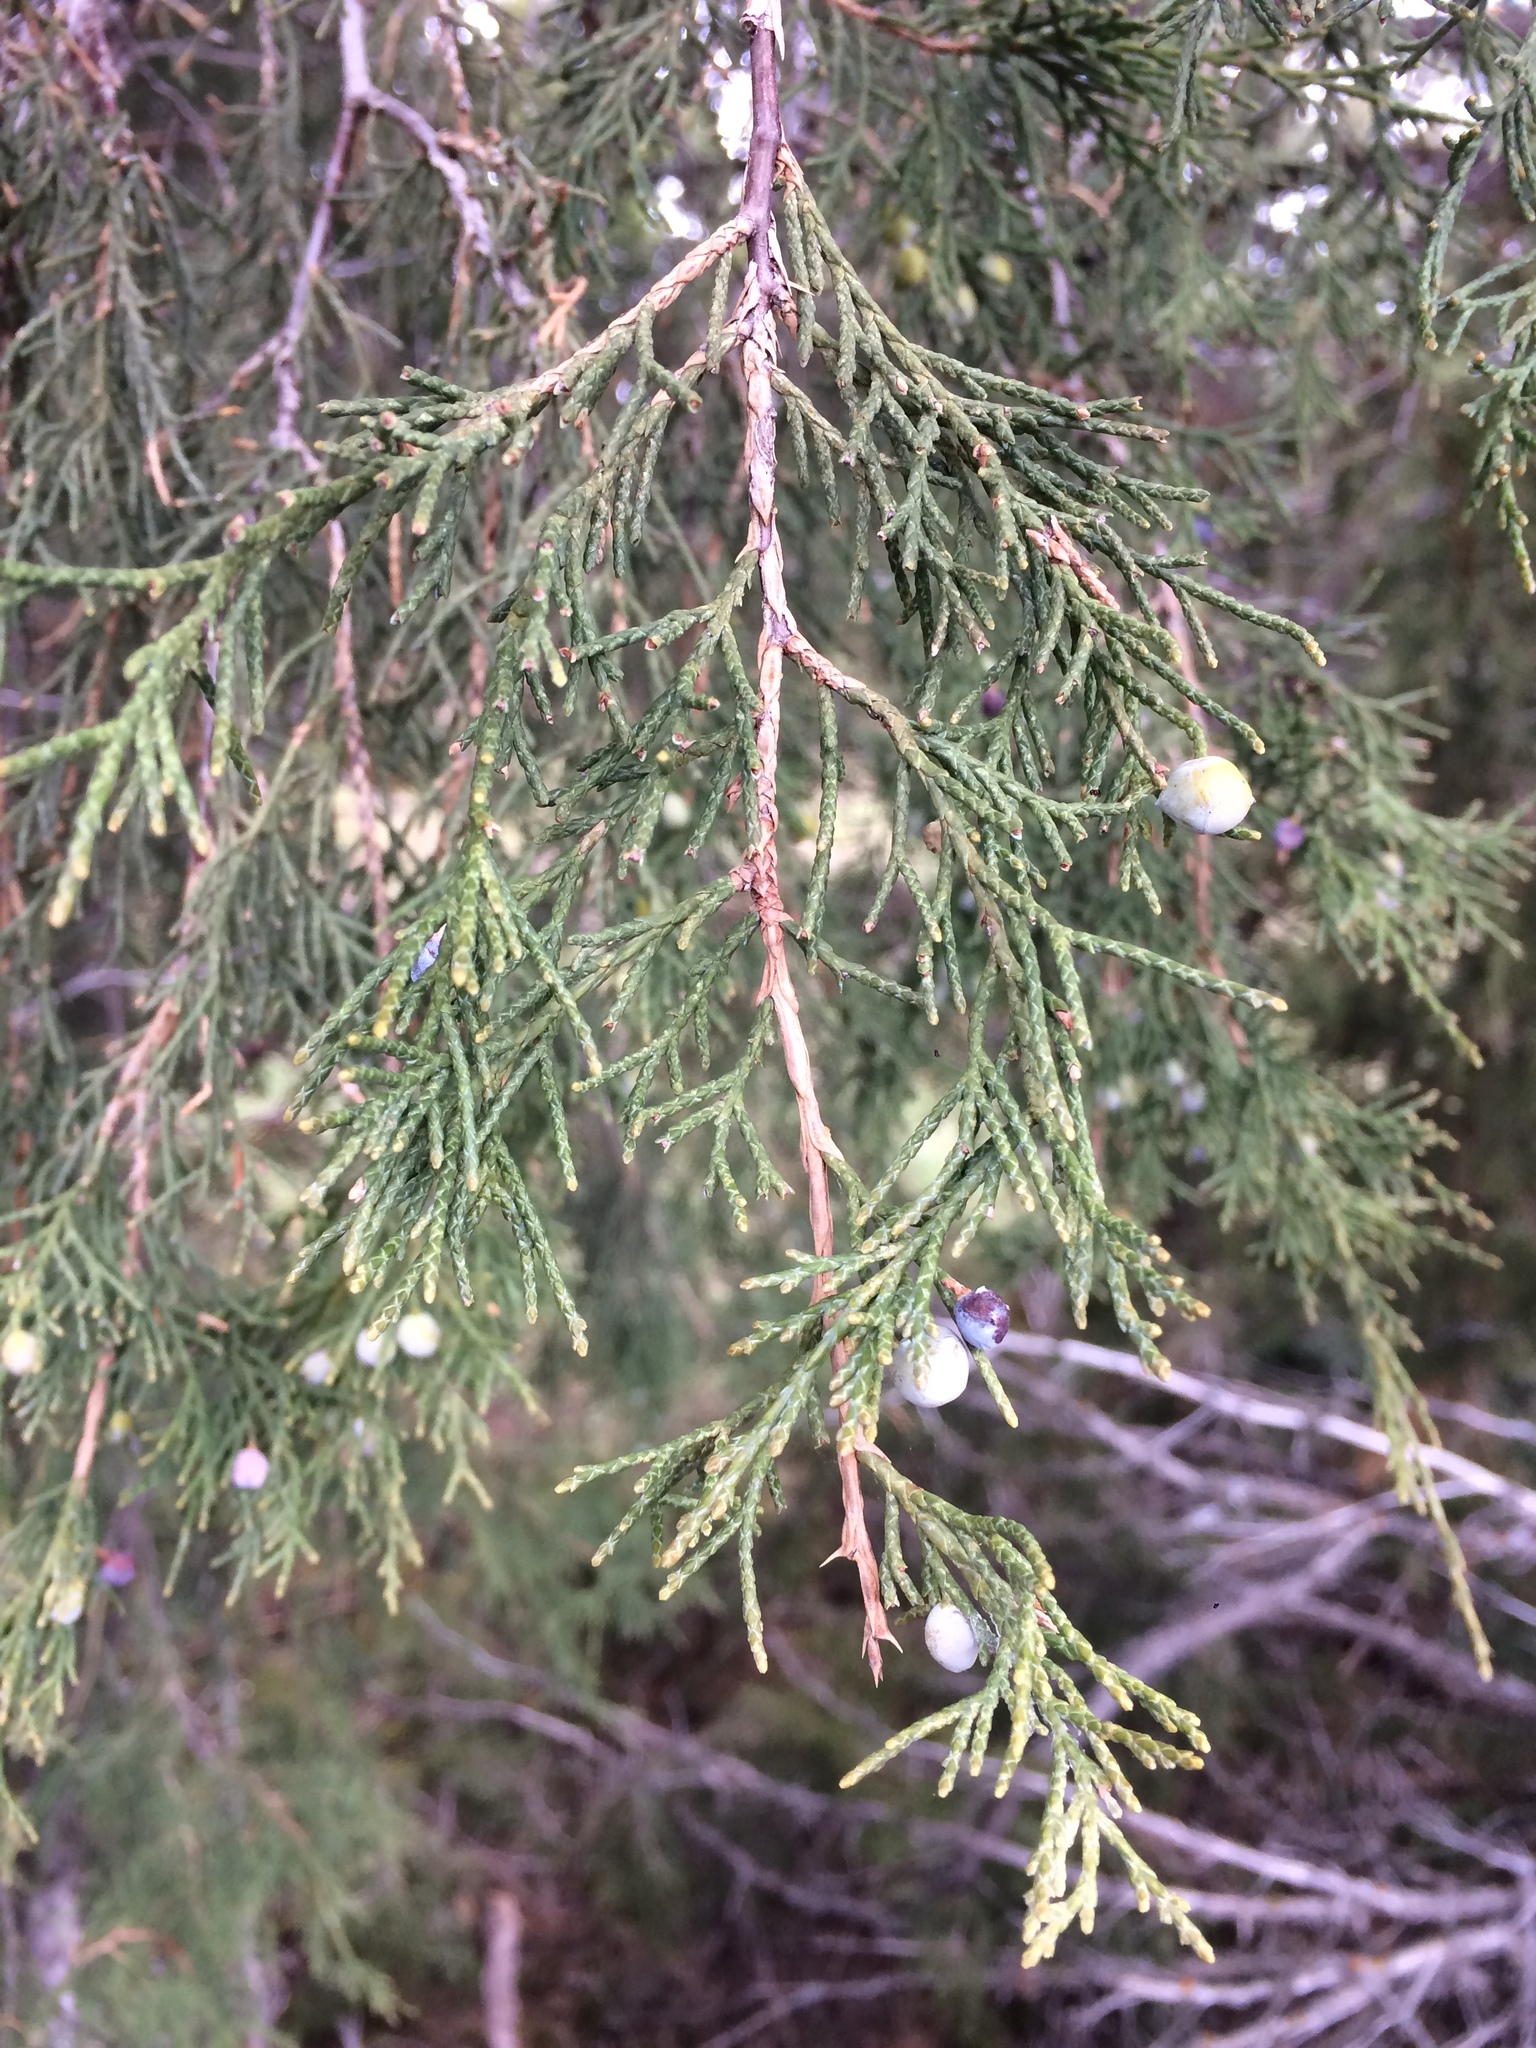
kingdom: Plantae
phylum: Tracheophyta
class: Pinopsida
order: Pinales
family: Cupressaceae
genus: Juniperus
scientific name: Juniperus scopulorum
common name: Rocky mountain juniper
